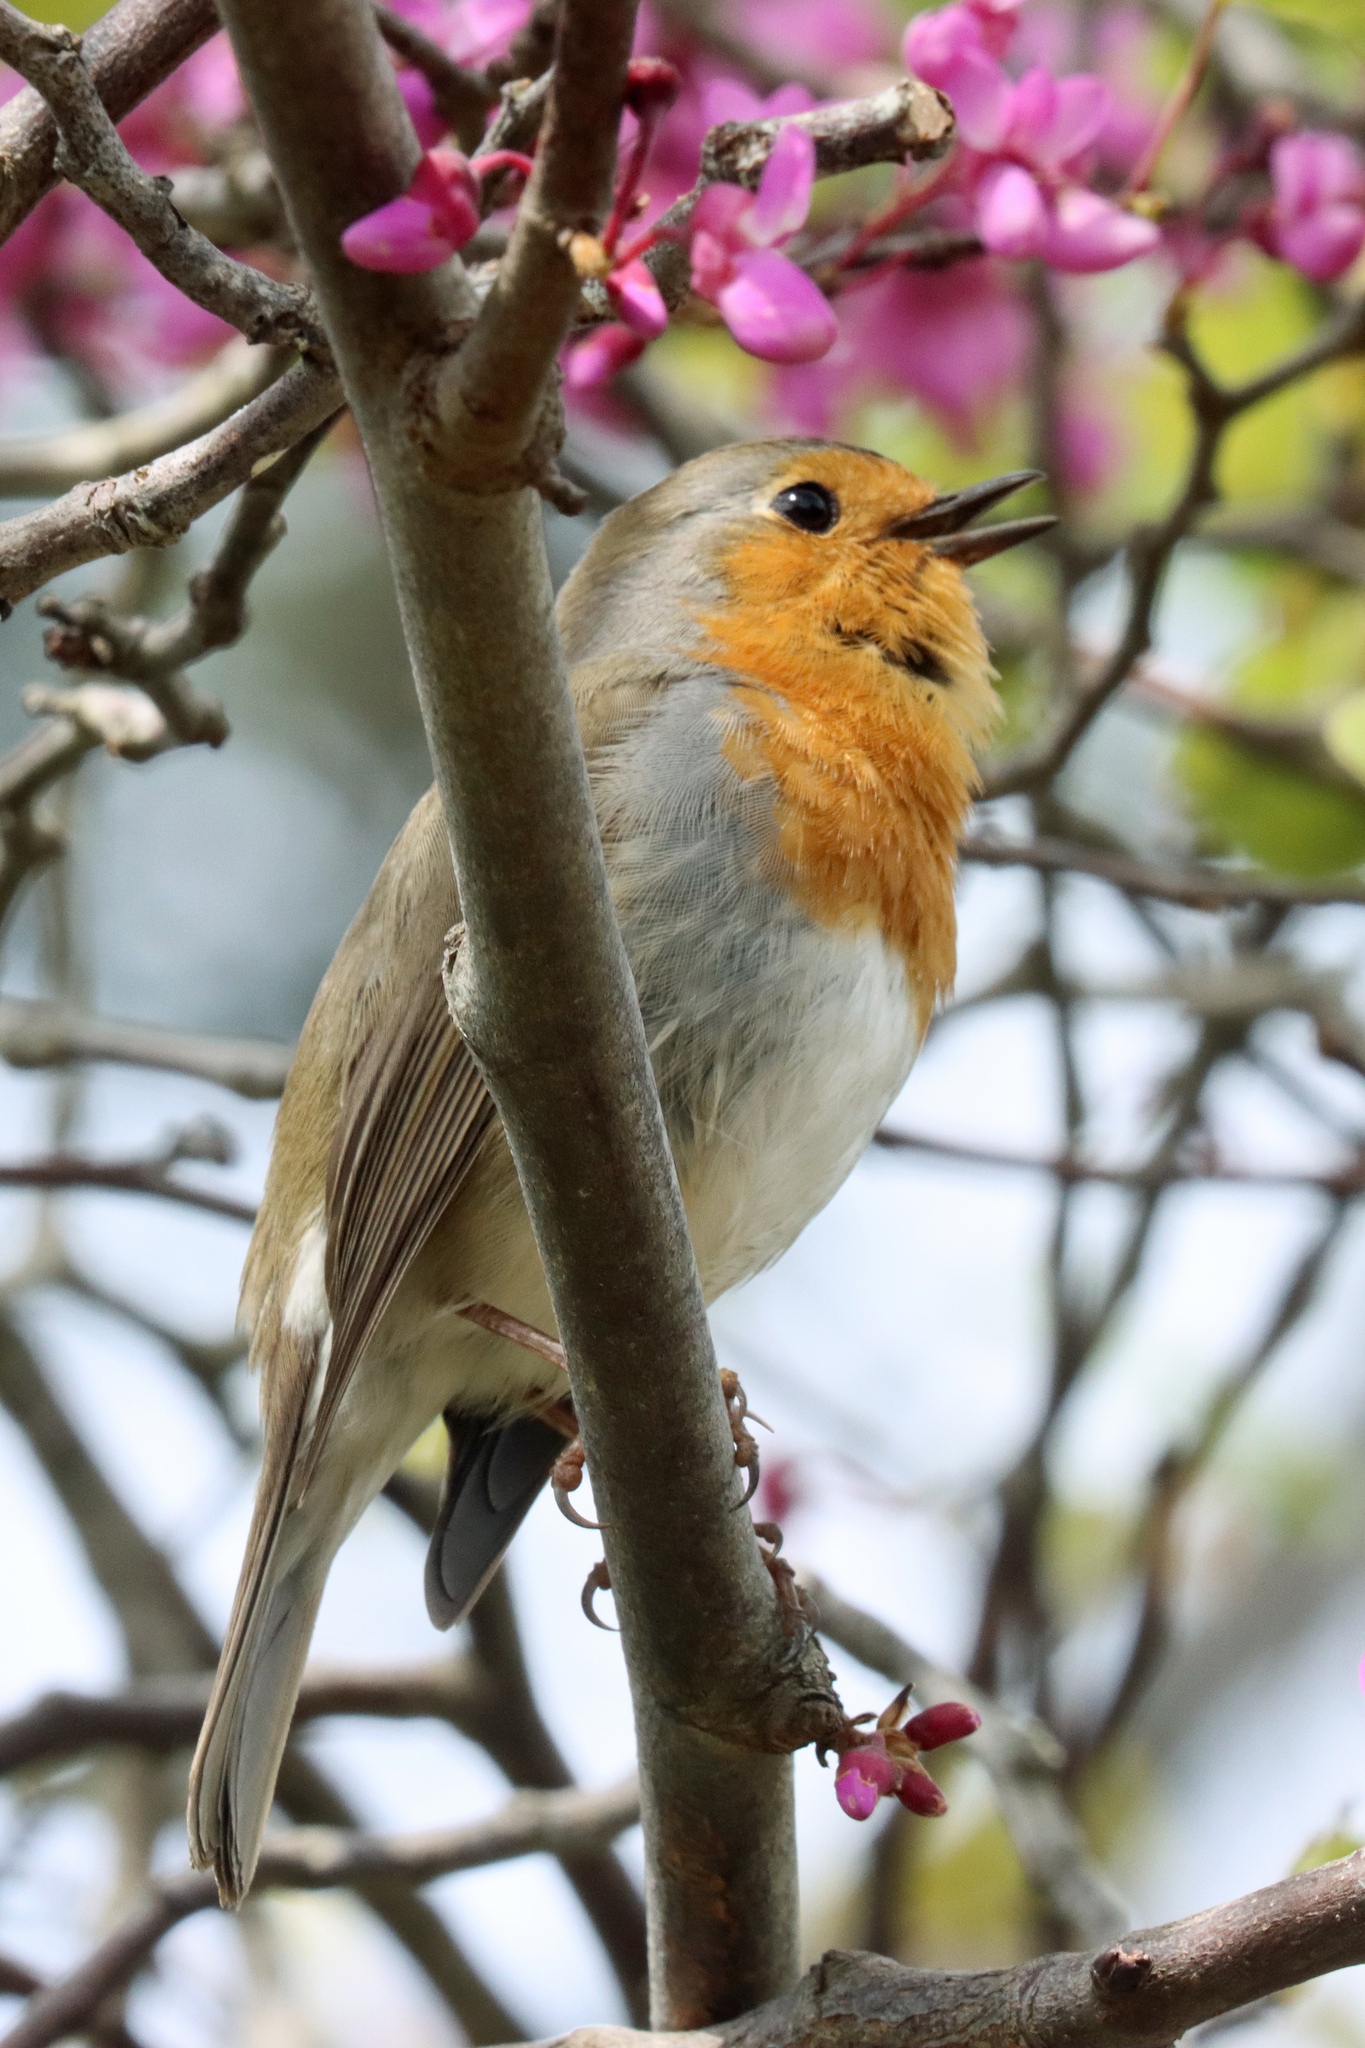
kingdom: Animalia
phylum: Chordata
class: Aves
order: Passeriformes
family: Muscicapidae
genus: Erithacus
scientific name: Erithacus rubecula
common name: European robin
